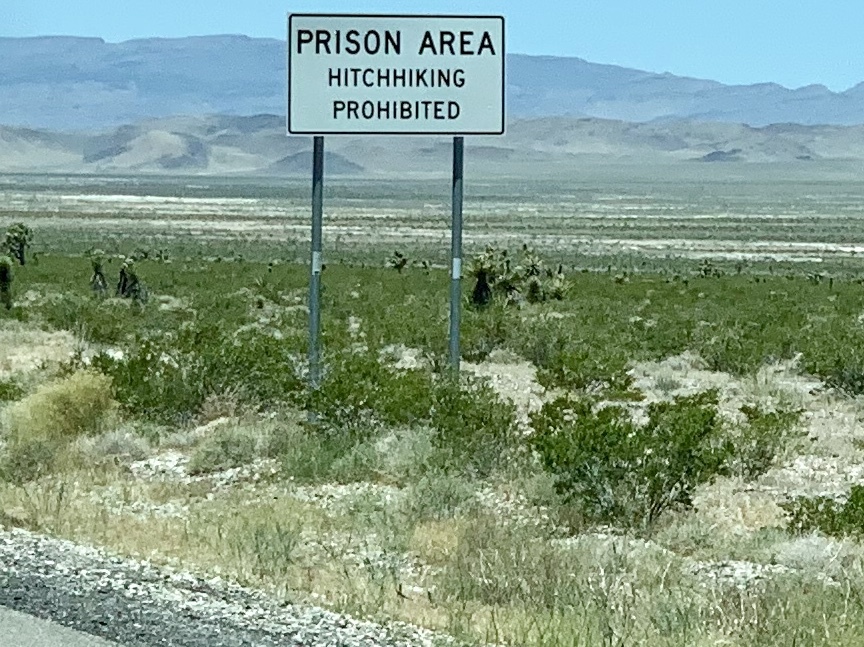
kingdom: Plantae
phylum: Tracheophyta
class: Magnoliopsida
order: Zygophyllales
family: Zygophyllaceae
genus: Larrea
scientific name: Larrea tridentata
